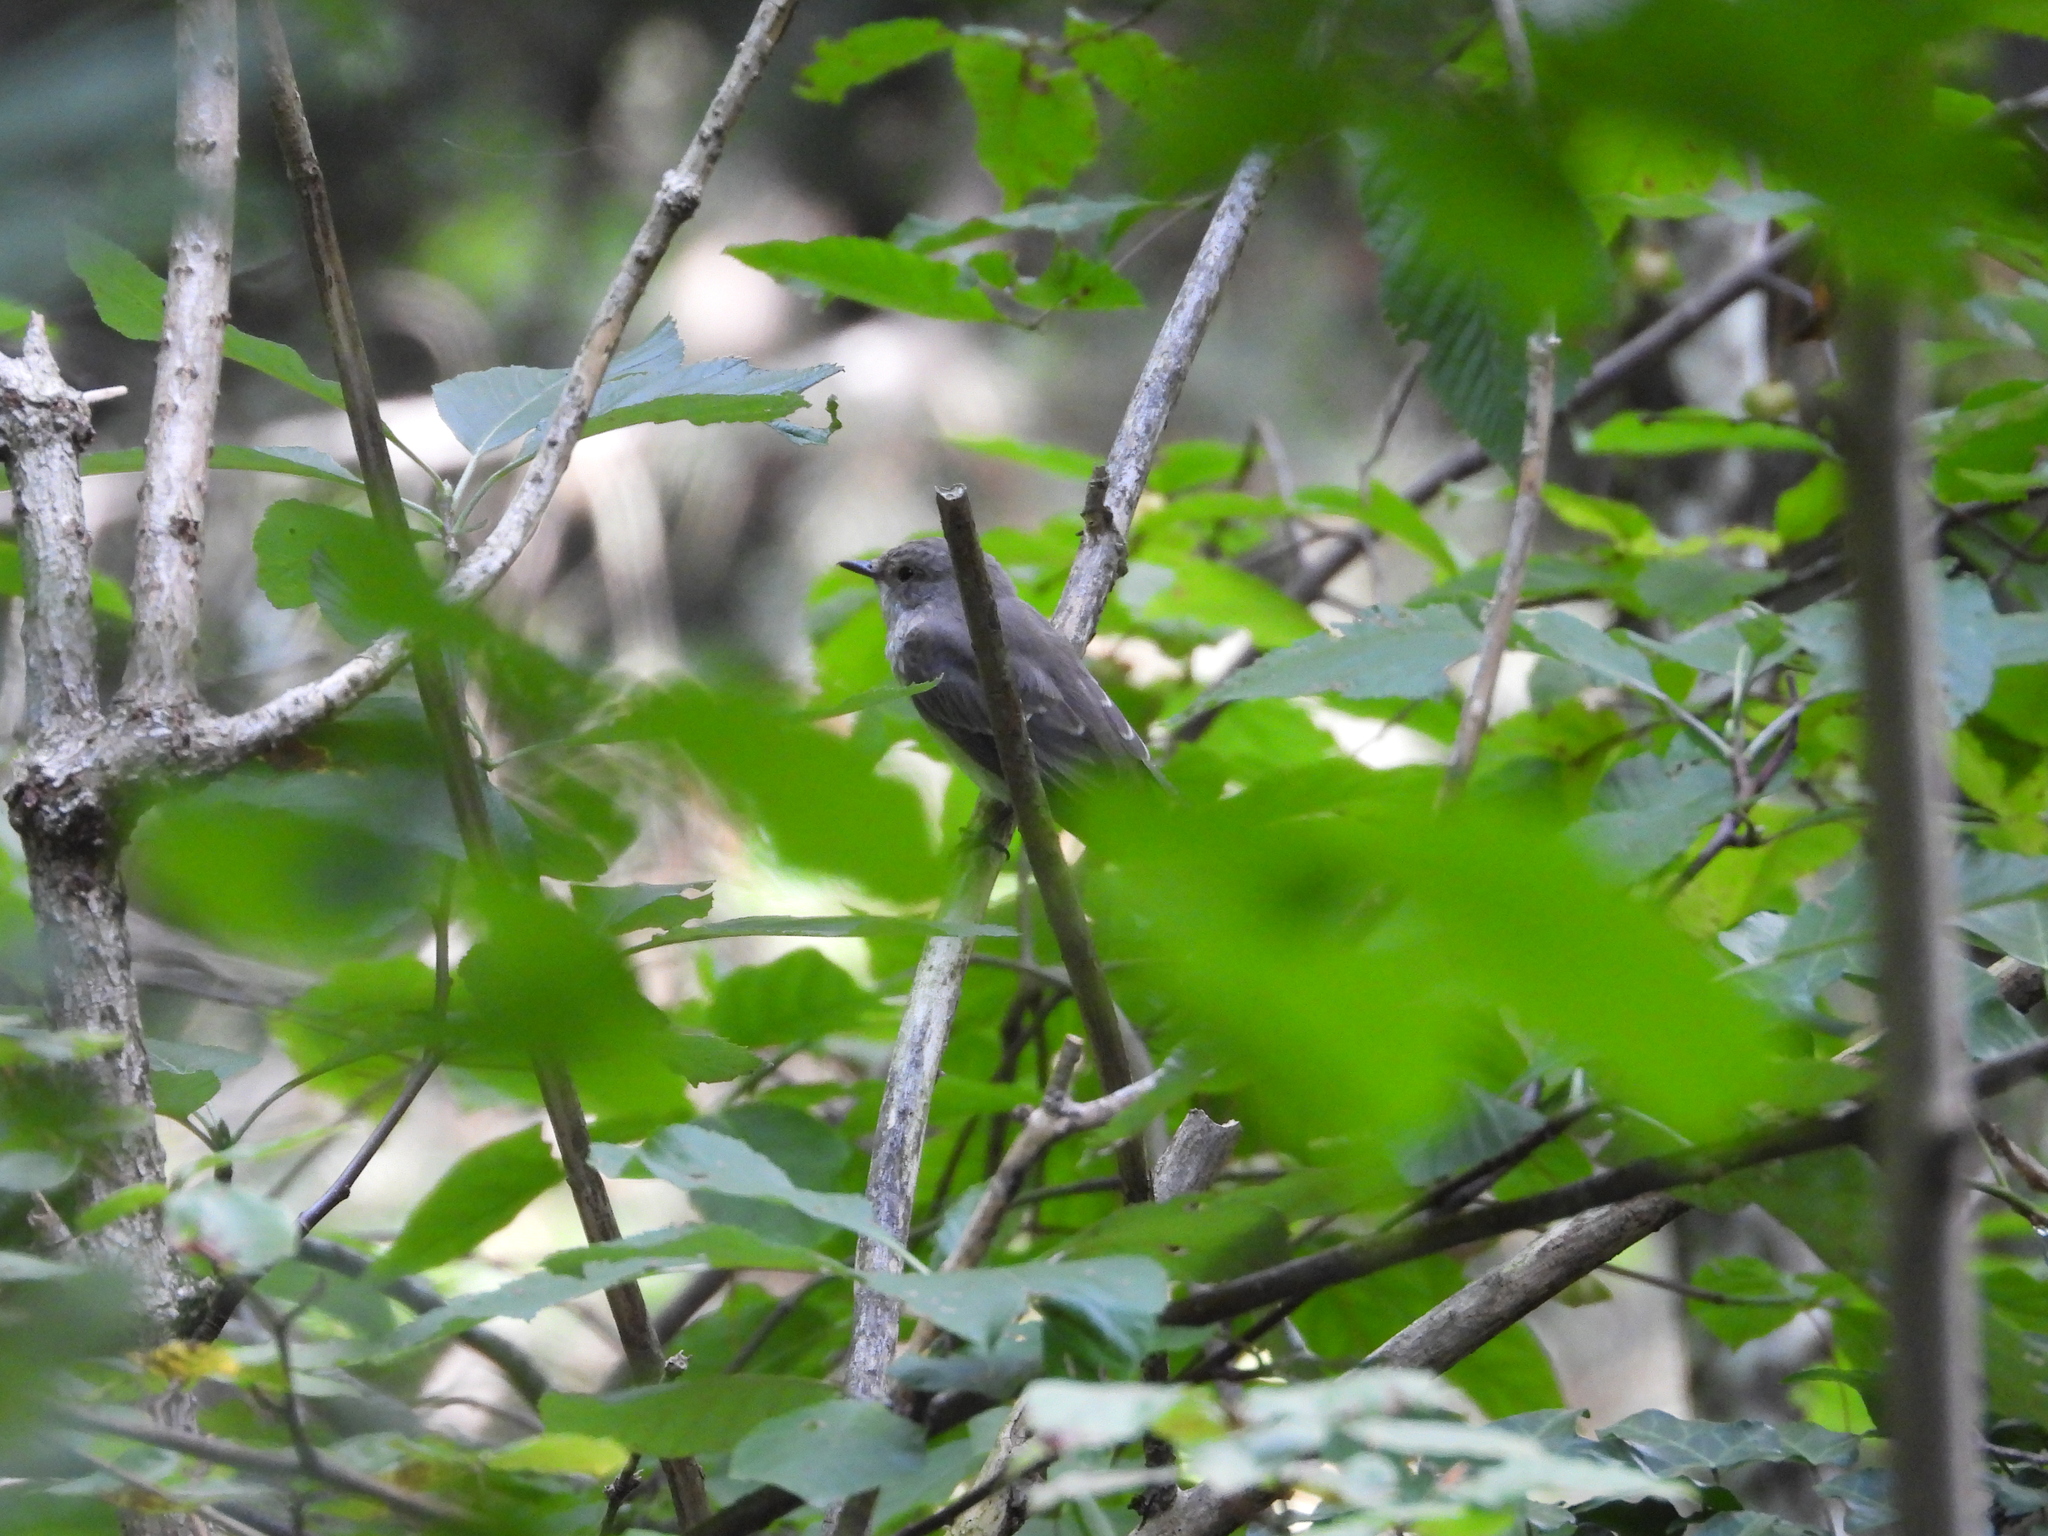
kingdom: Animalia
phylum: Chordata
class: Aves
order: Passeriformes
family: Muscicapidae
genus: Muscicapa
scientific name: Muscicapa striata
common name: Spotted flycatcher
